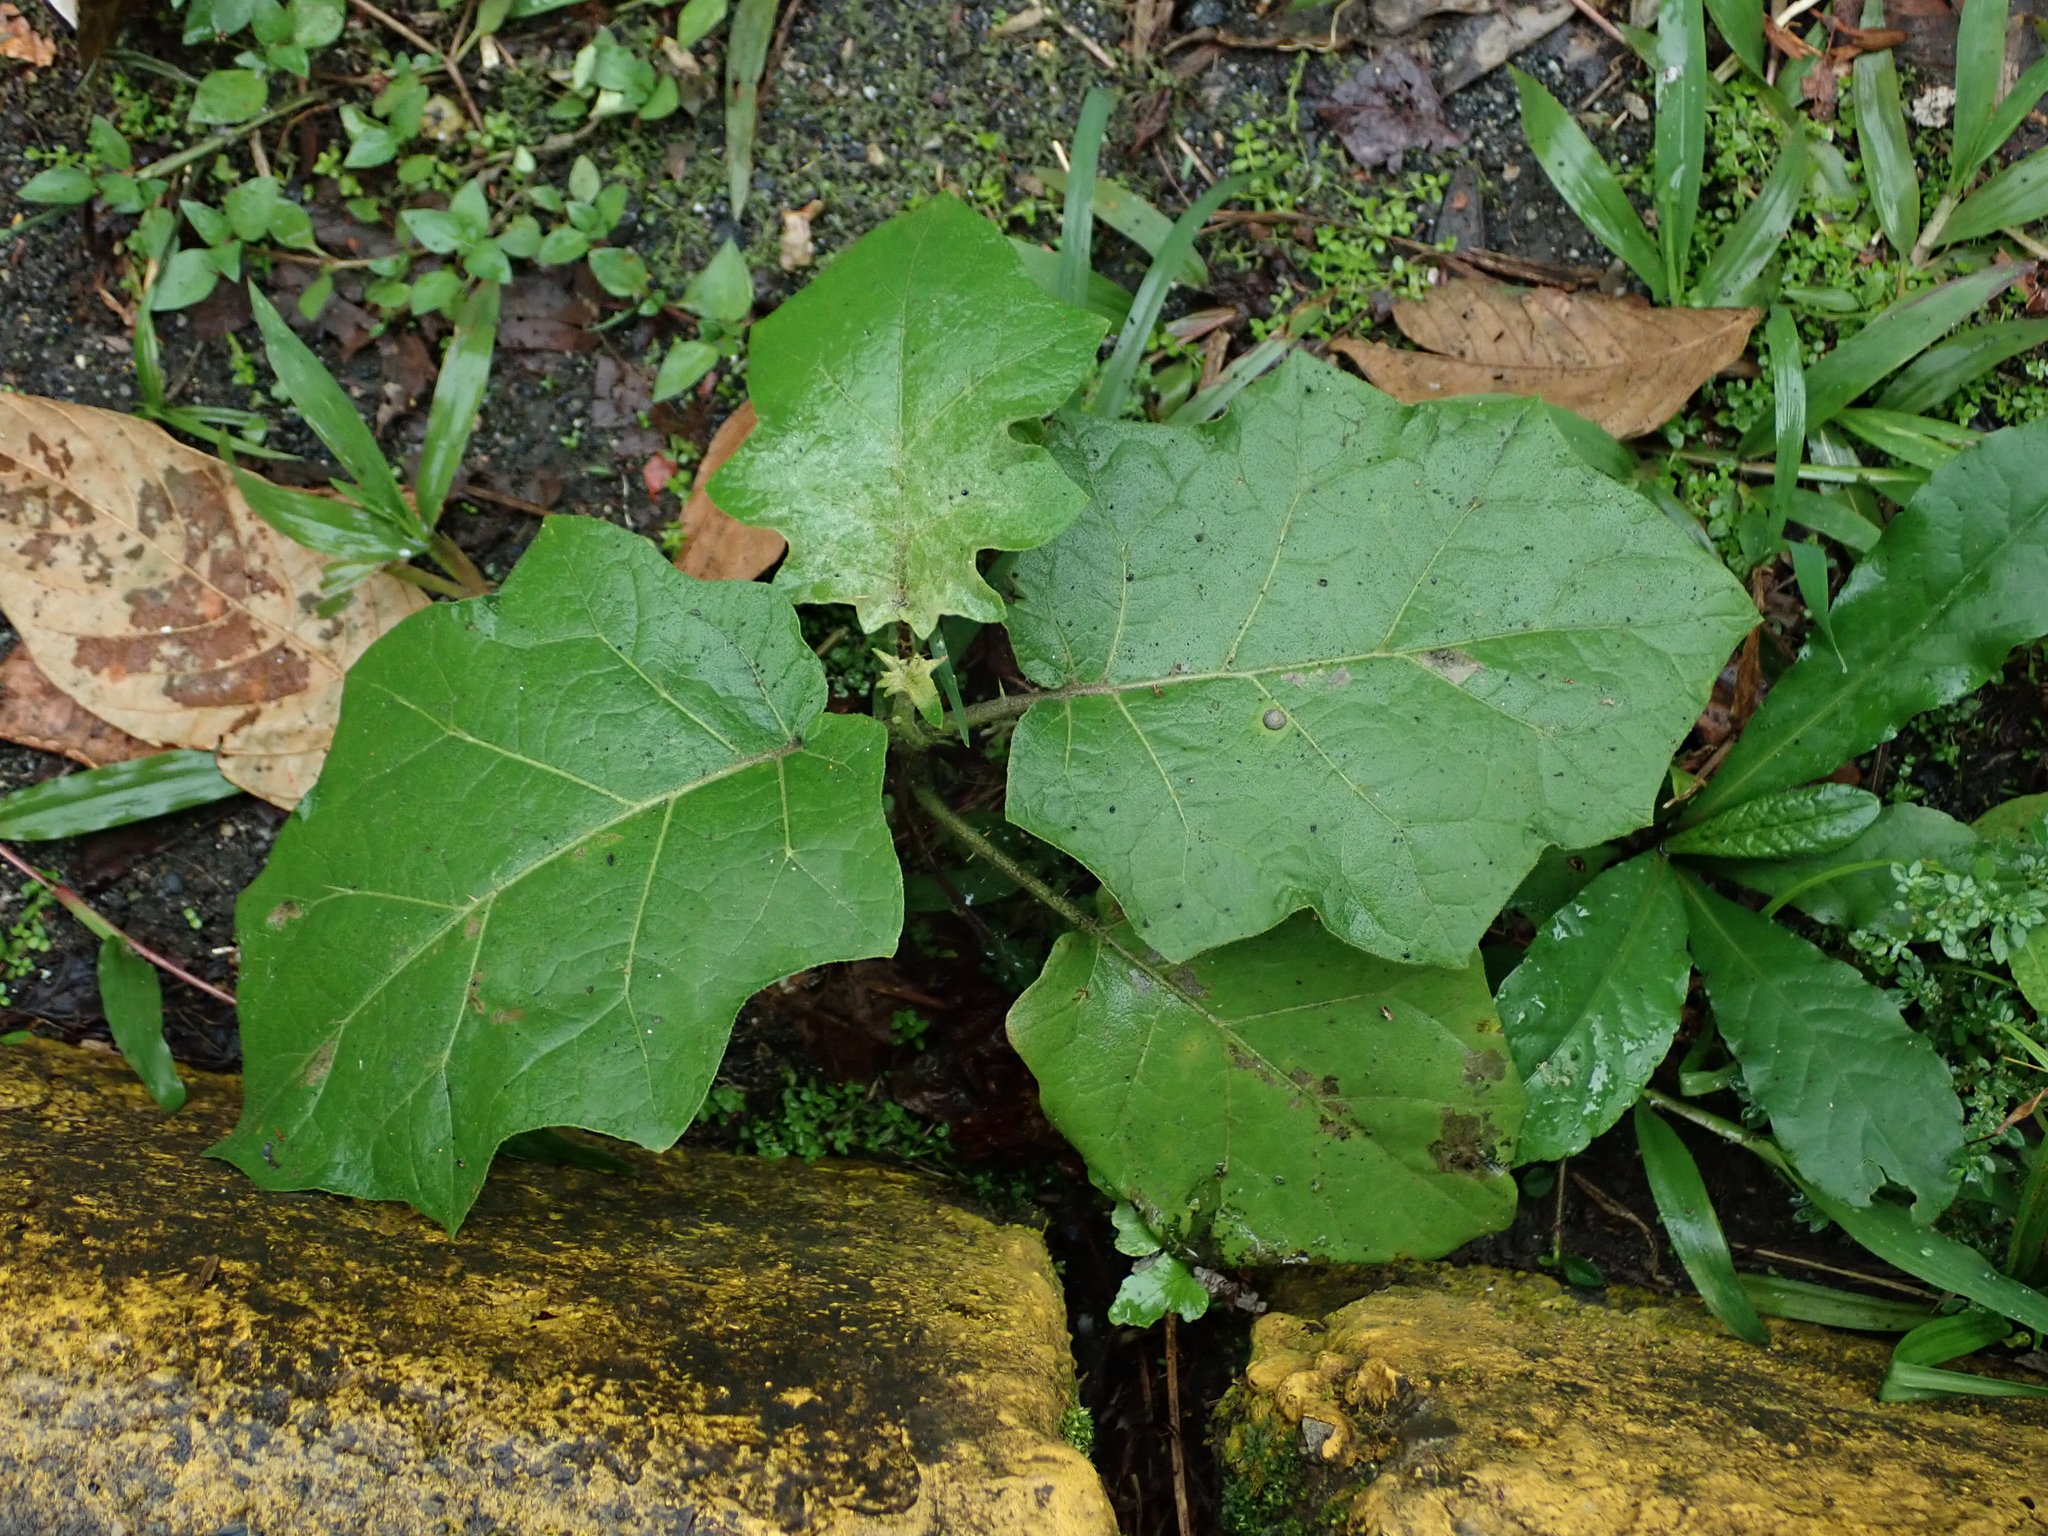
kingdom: Plantae
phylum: Tracheophyta
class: Magnoliopsida
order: Solanales
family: Solanaceae
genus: Solanum
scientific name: Solanum torvum
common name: Turkey berry
